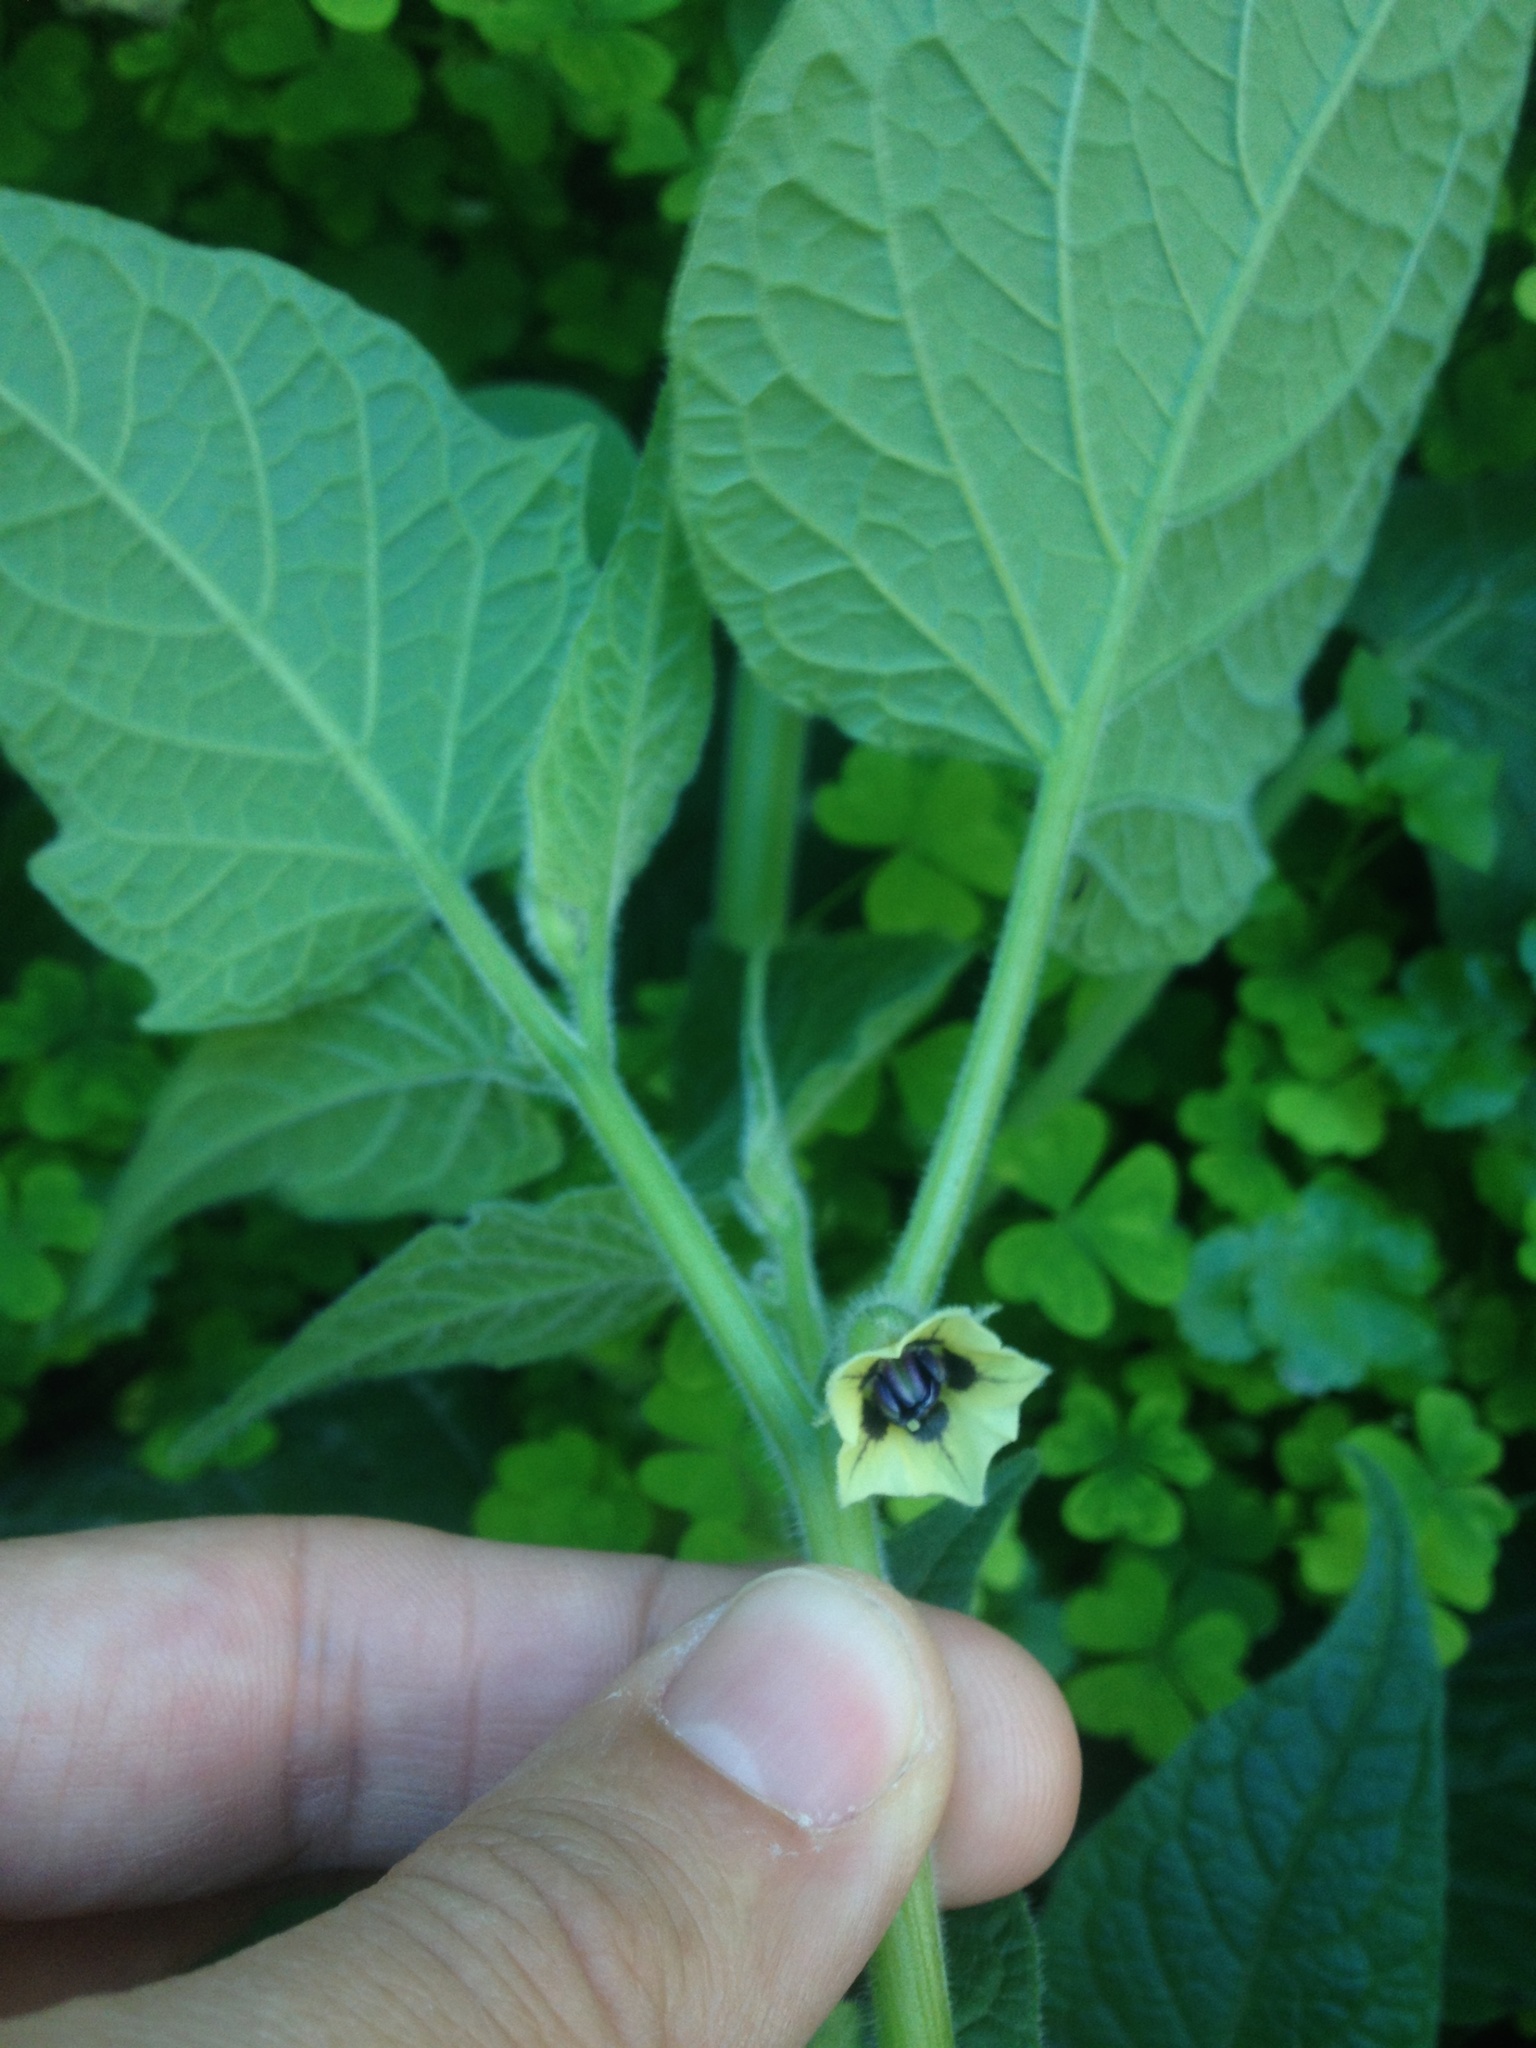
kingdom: Plantae
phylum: Tracheophyta
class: Magnoliopsida
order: Solanales
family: Solanaceae
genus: Physalis
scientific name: Physalis peruviana
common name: Cape-gooseberry
